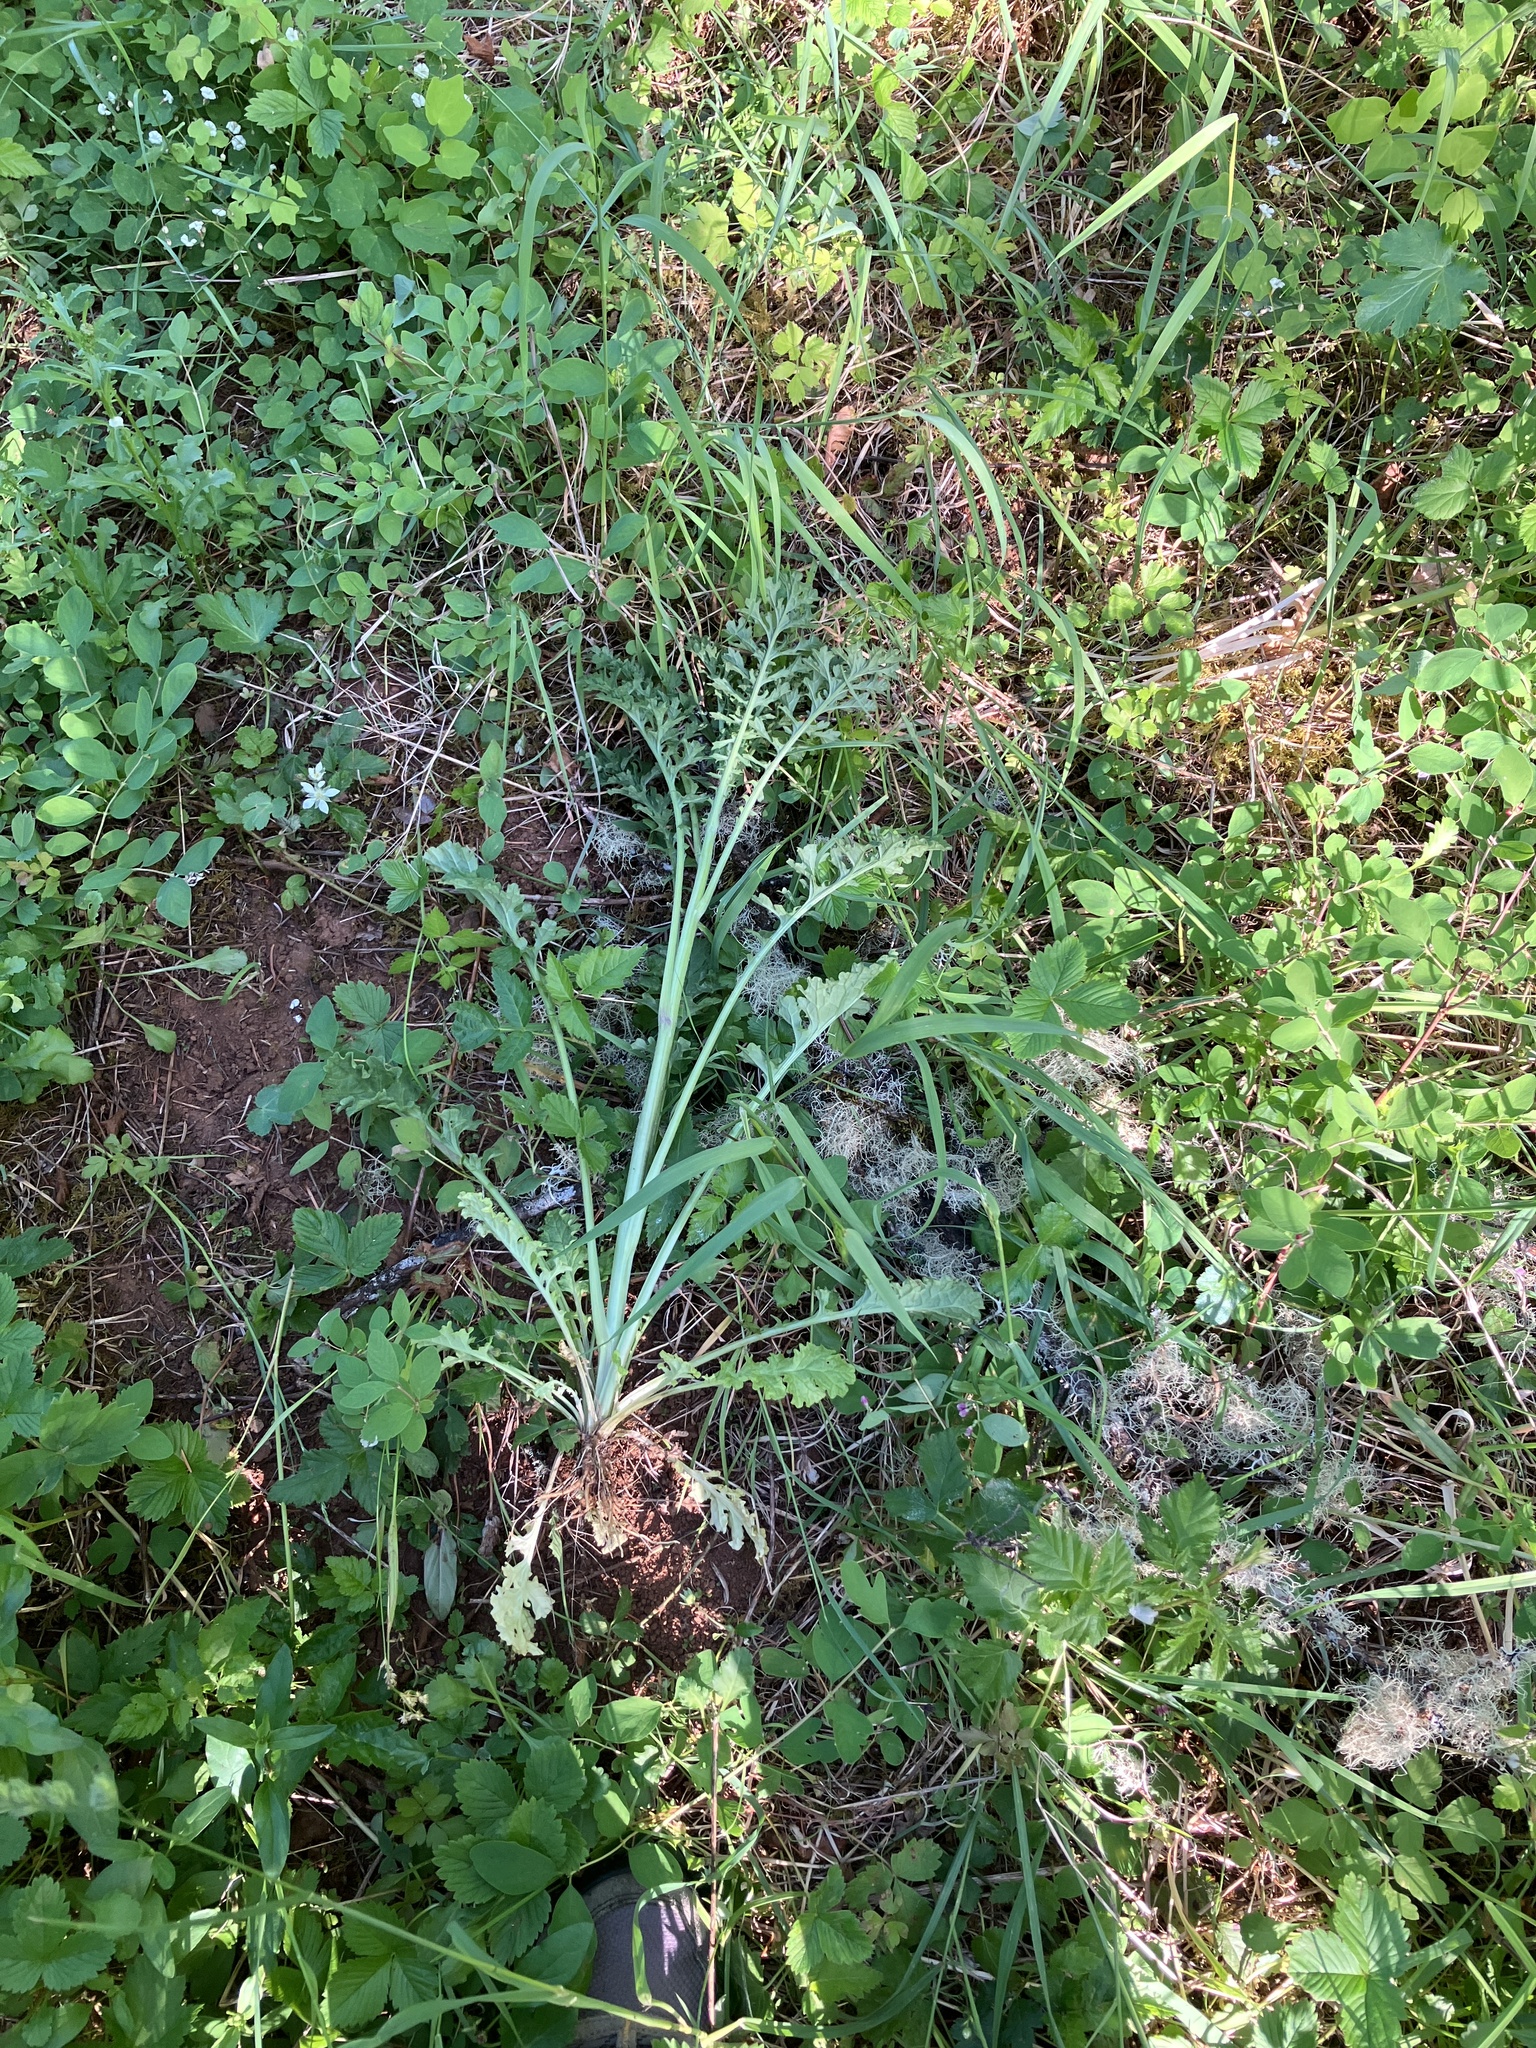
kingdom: Plantae
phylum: Tracheophyta
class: Magnoliopsida
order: Asterales
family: Asteraceae
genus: Jacobaea
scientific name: Jacobaea vulgaris
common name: Stinking willie
